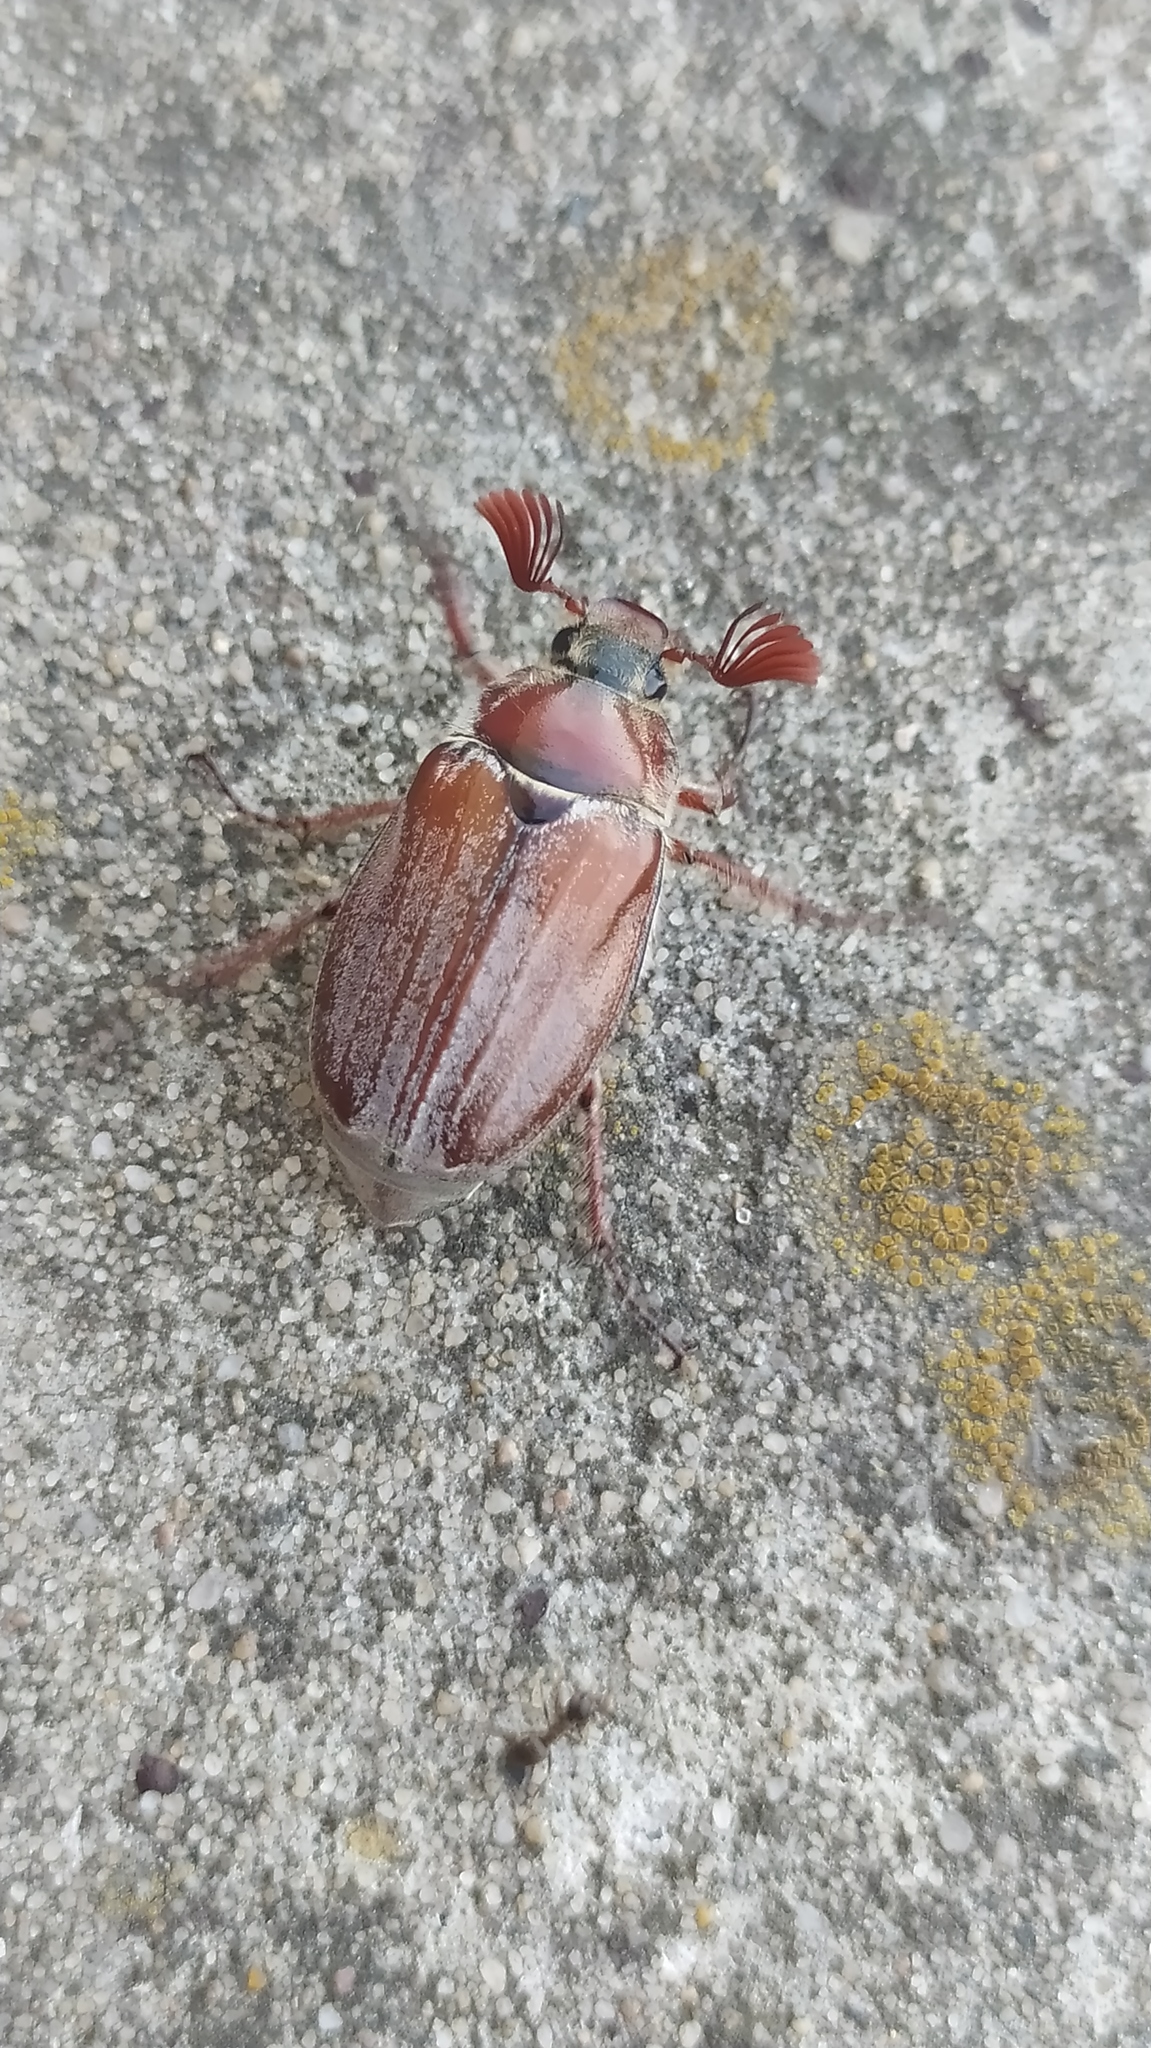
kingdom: Animalia
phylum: Arthropoda
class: Insecta
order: Coleoptera
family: Scarabaeidae
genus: Melolontha
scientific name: Melolontha hippocastani
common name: Chestnut cockchafer
